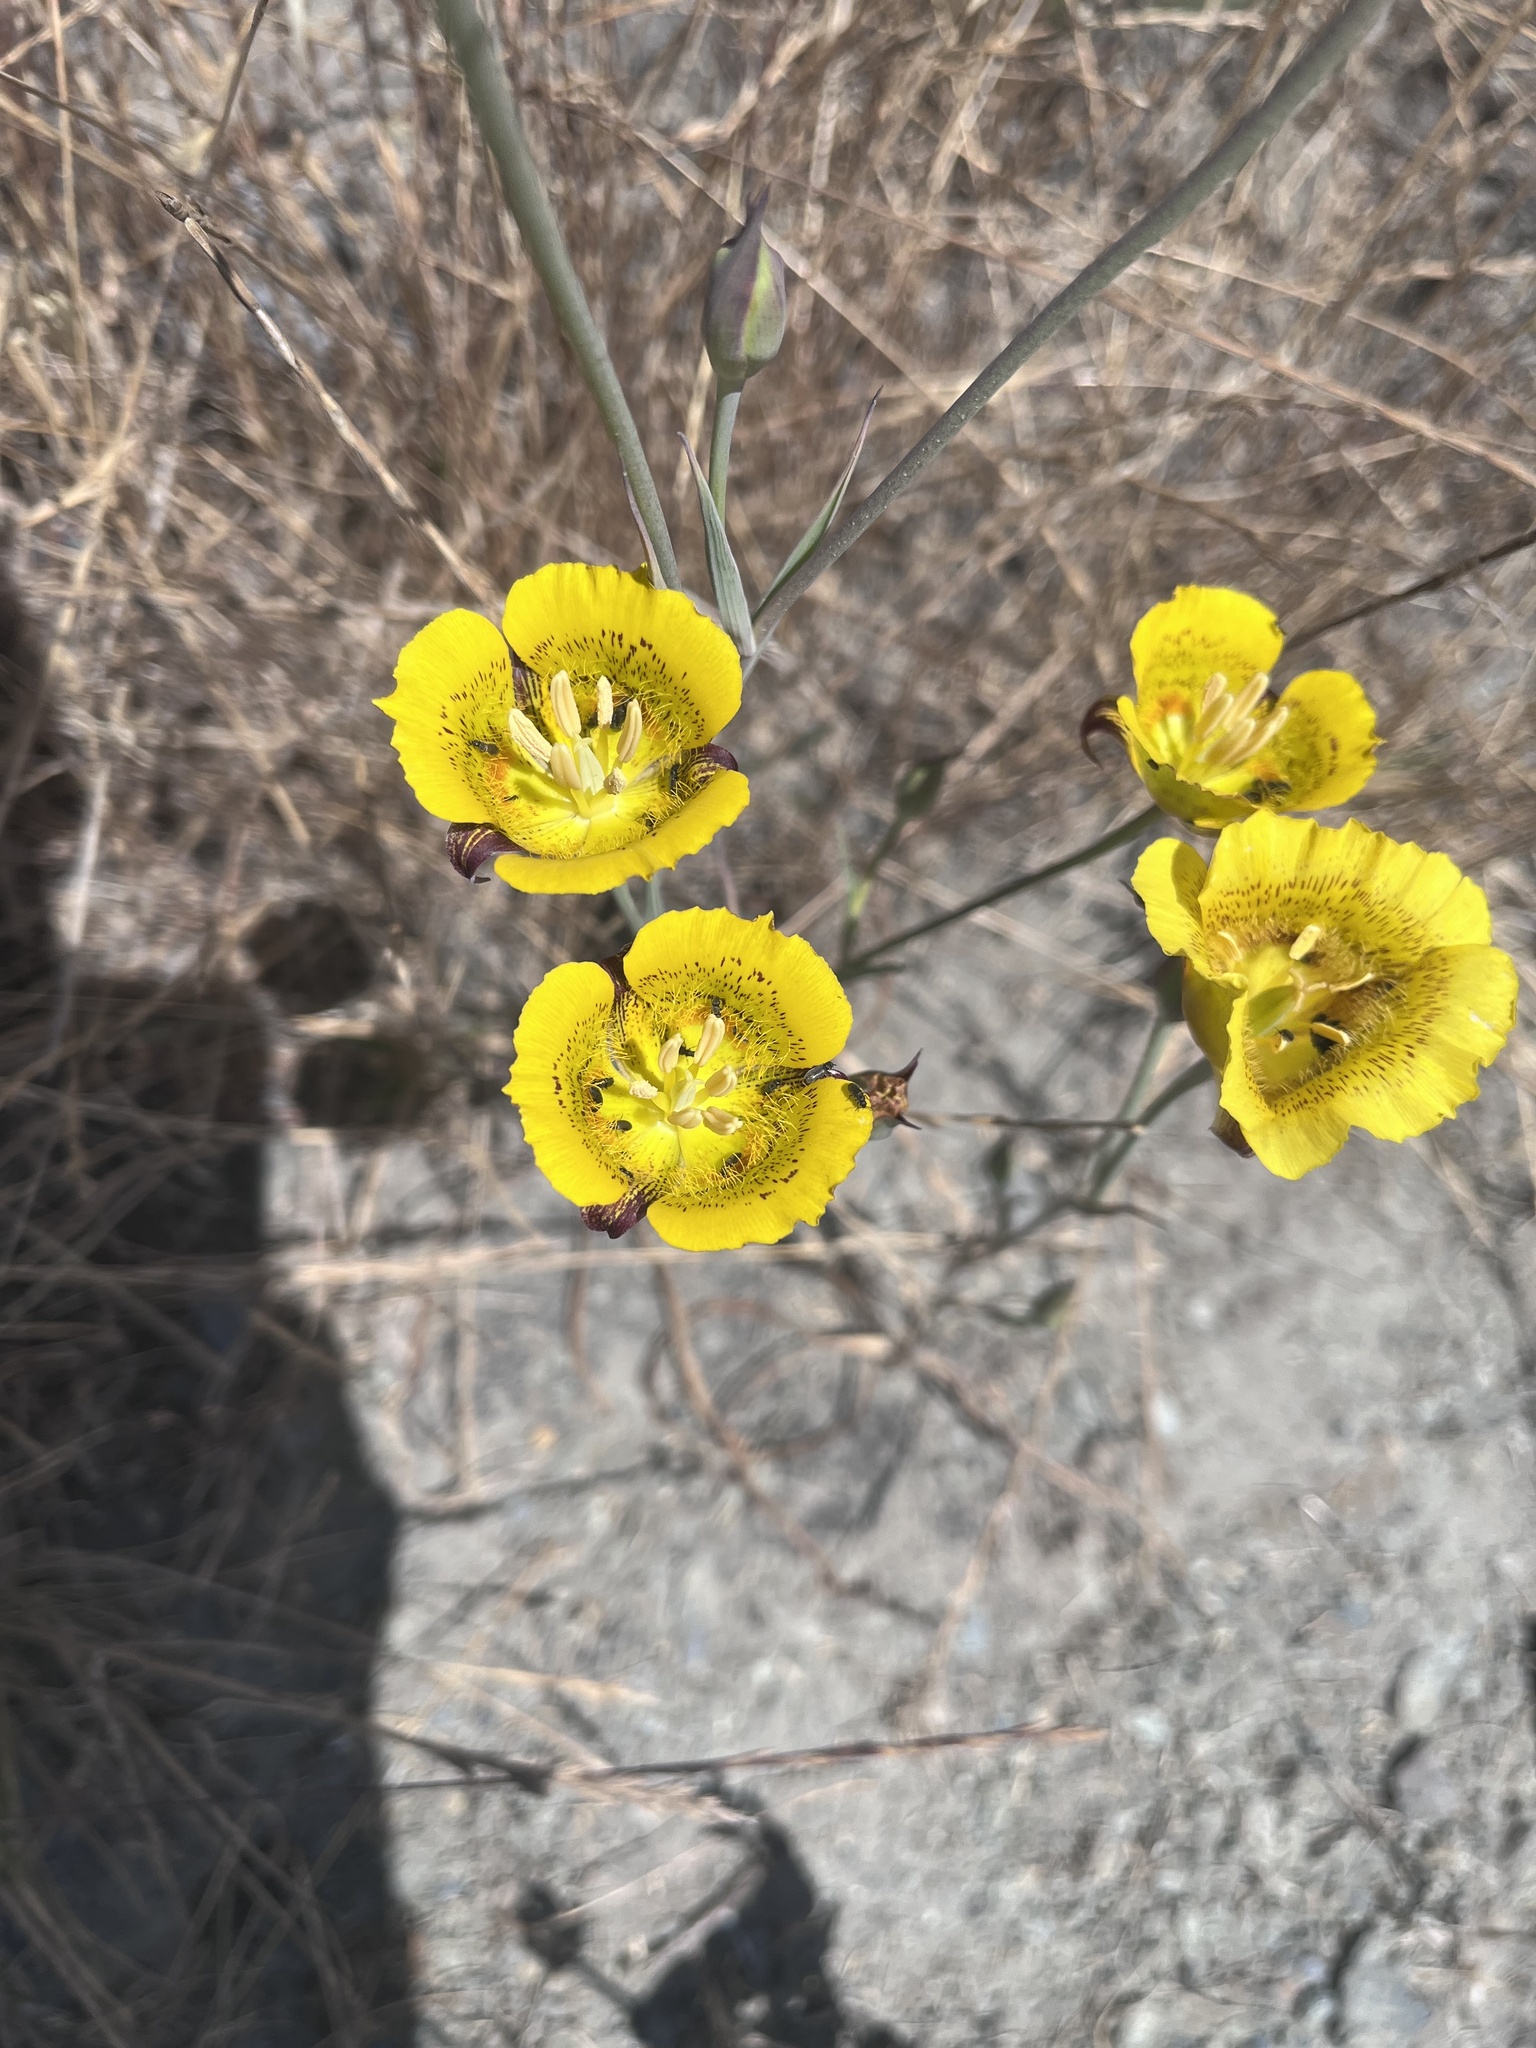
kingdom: Plantae
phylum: Tracheophyta
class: Liliopsida
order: Liliales
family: Liliaceae
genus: Calochortus
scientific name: Calochortus luteus
